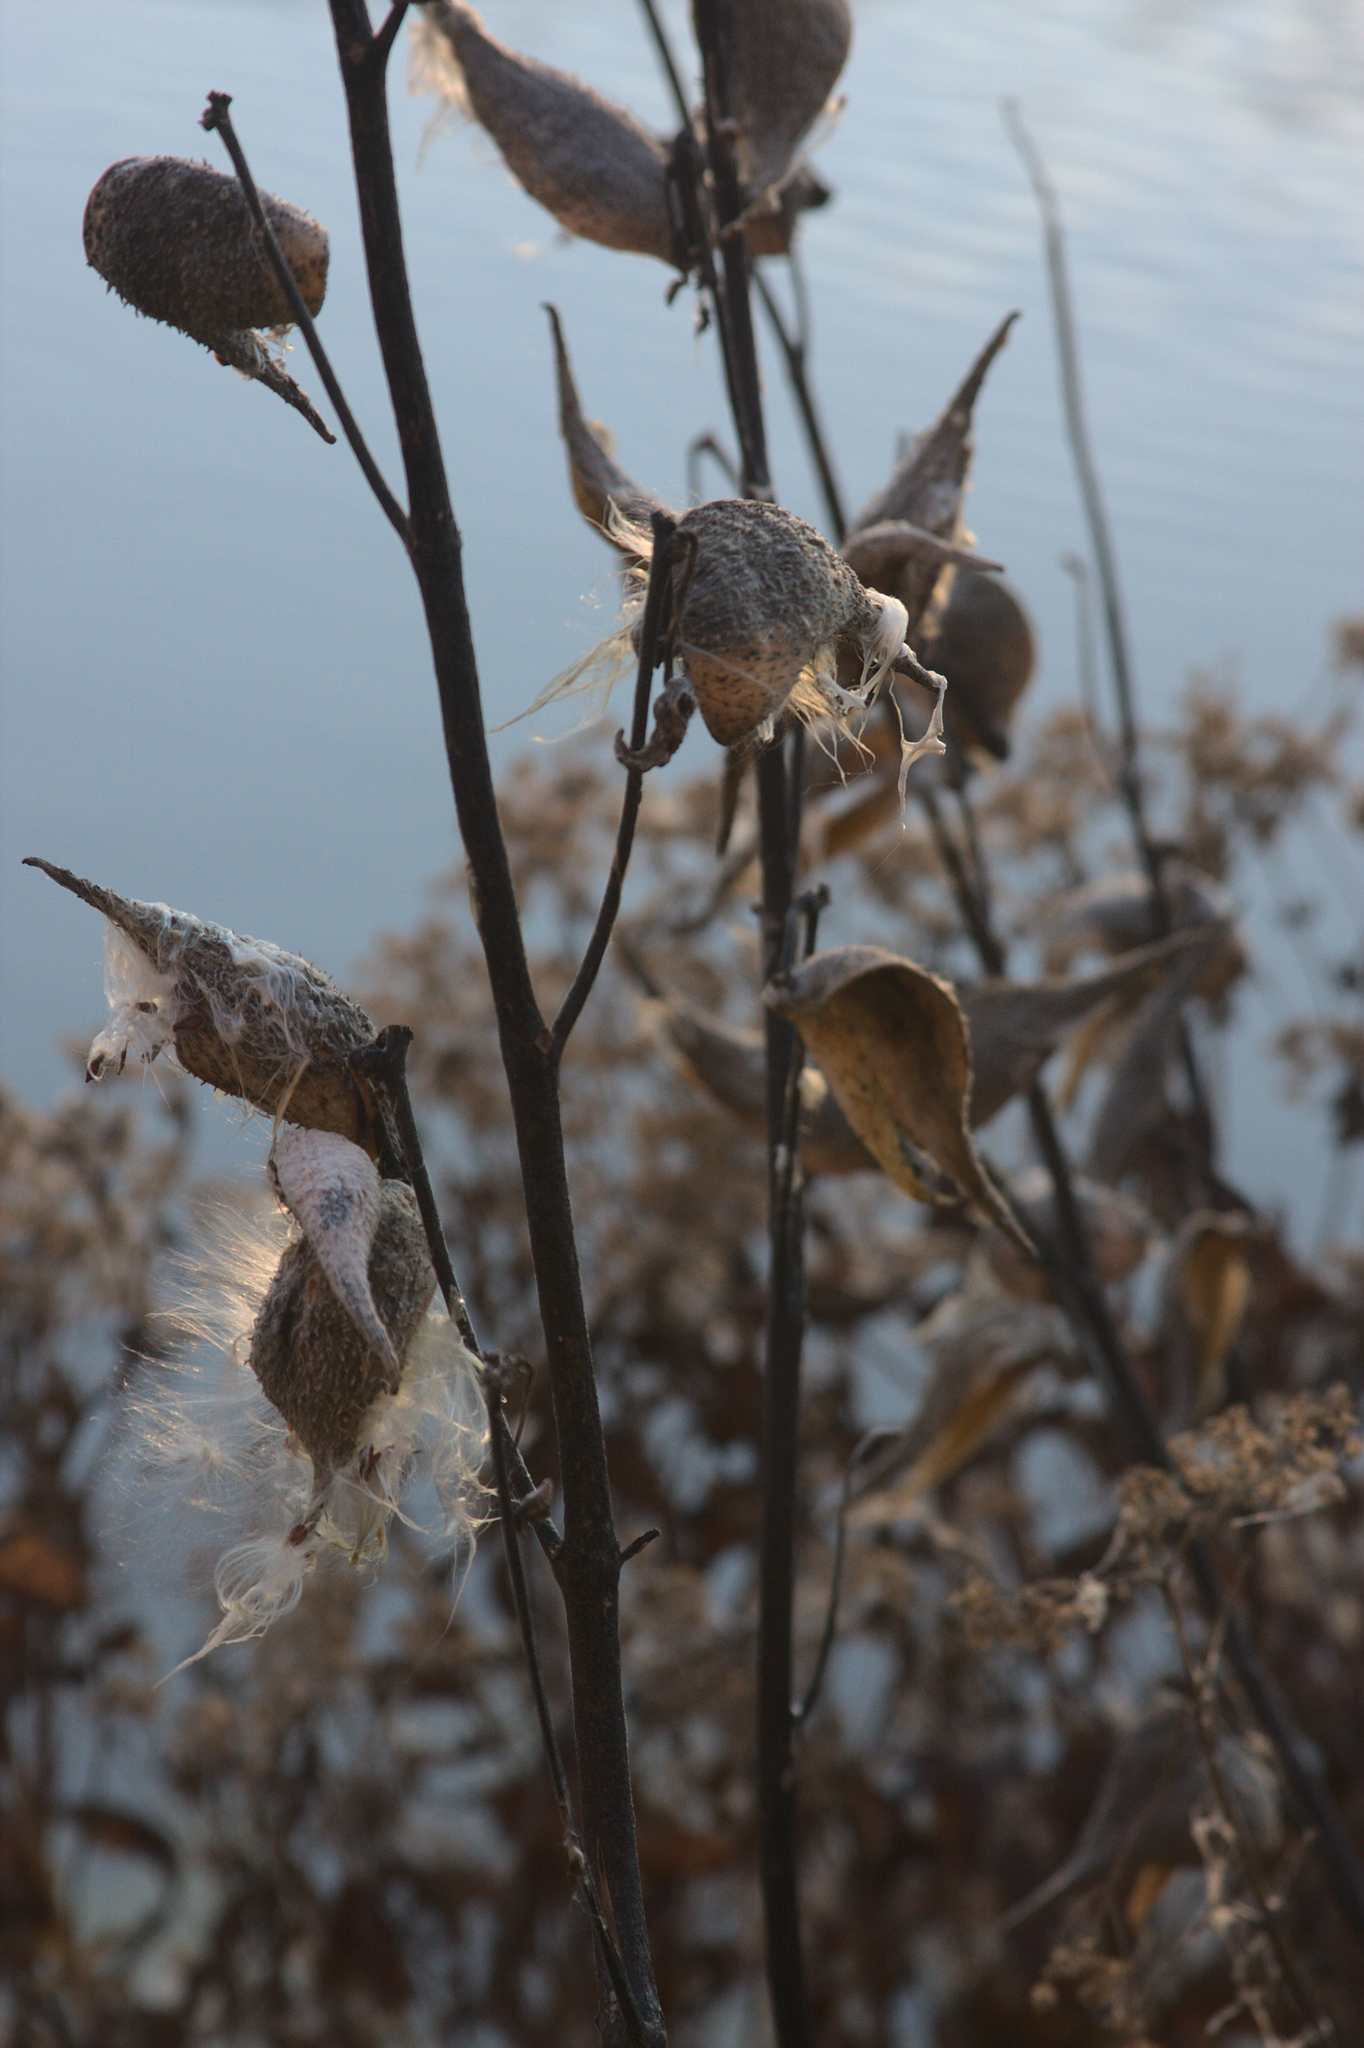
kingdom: Plantae
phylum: Tracheophyta
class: Magnoliopsida
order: Gentianales
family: Apocynaceae
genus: Asclepias
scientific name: Asclepias syriaca
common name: Common milkweed
